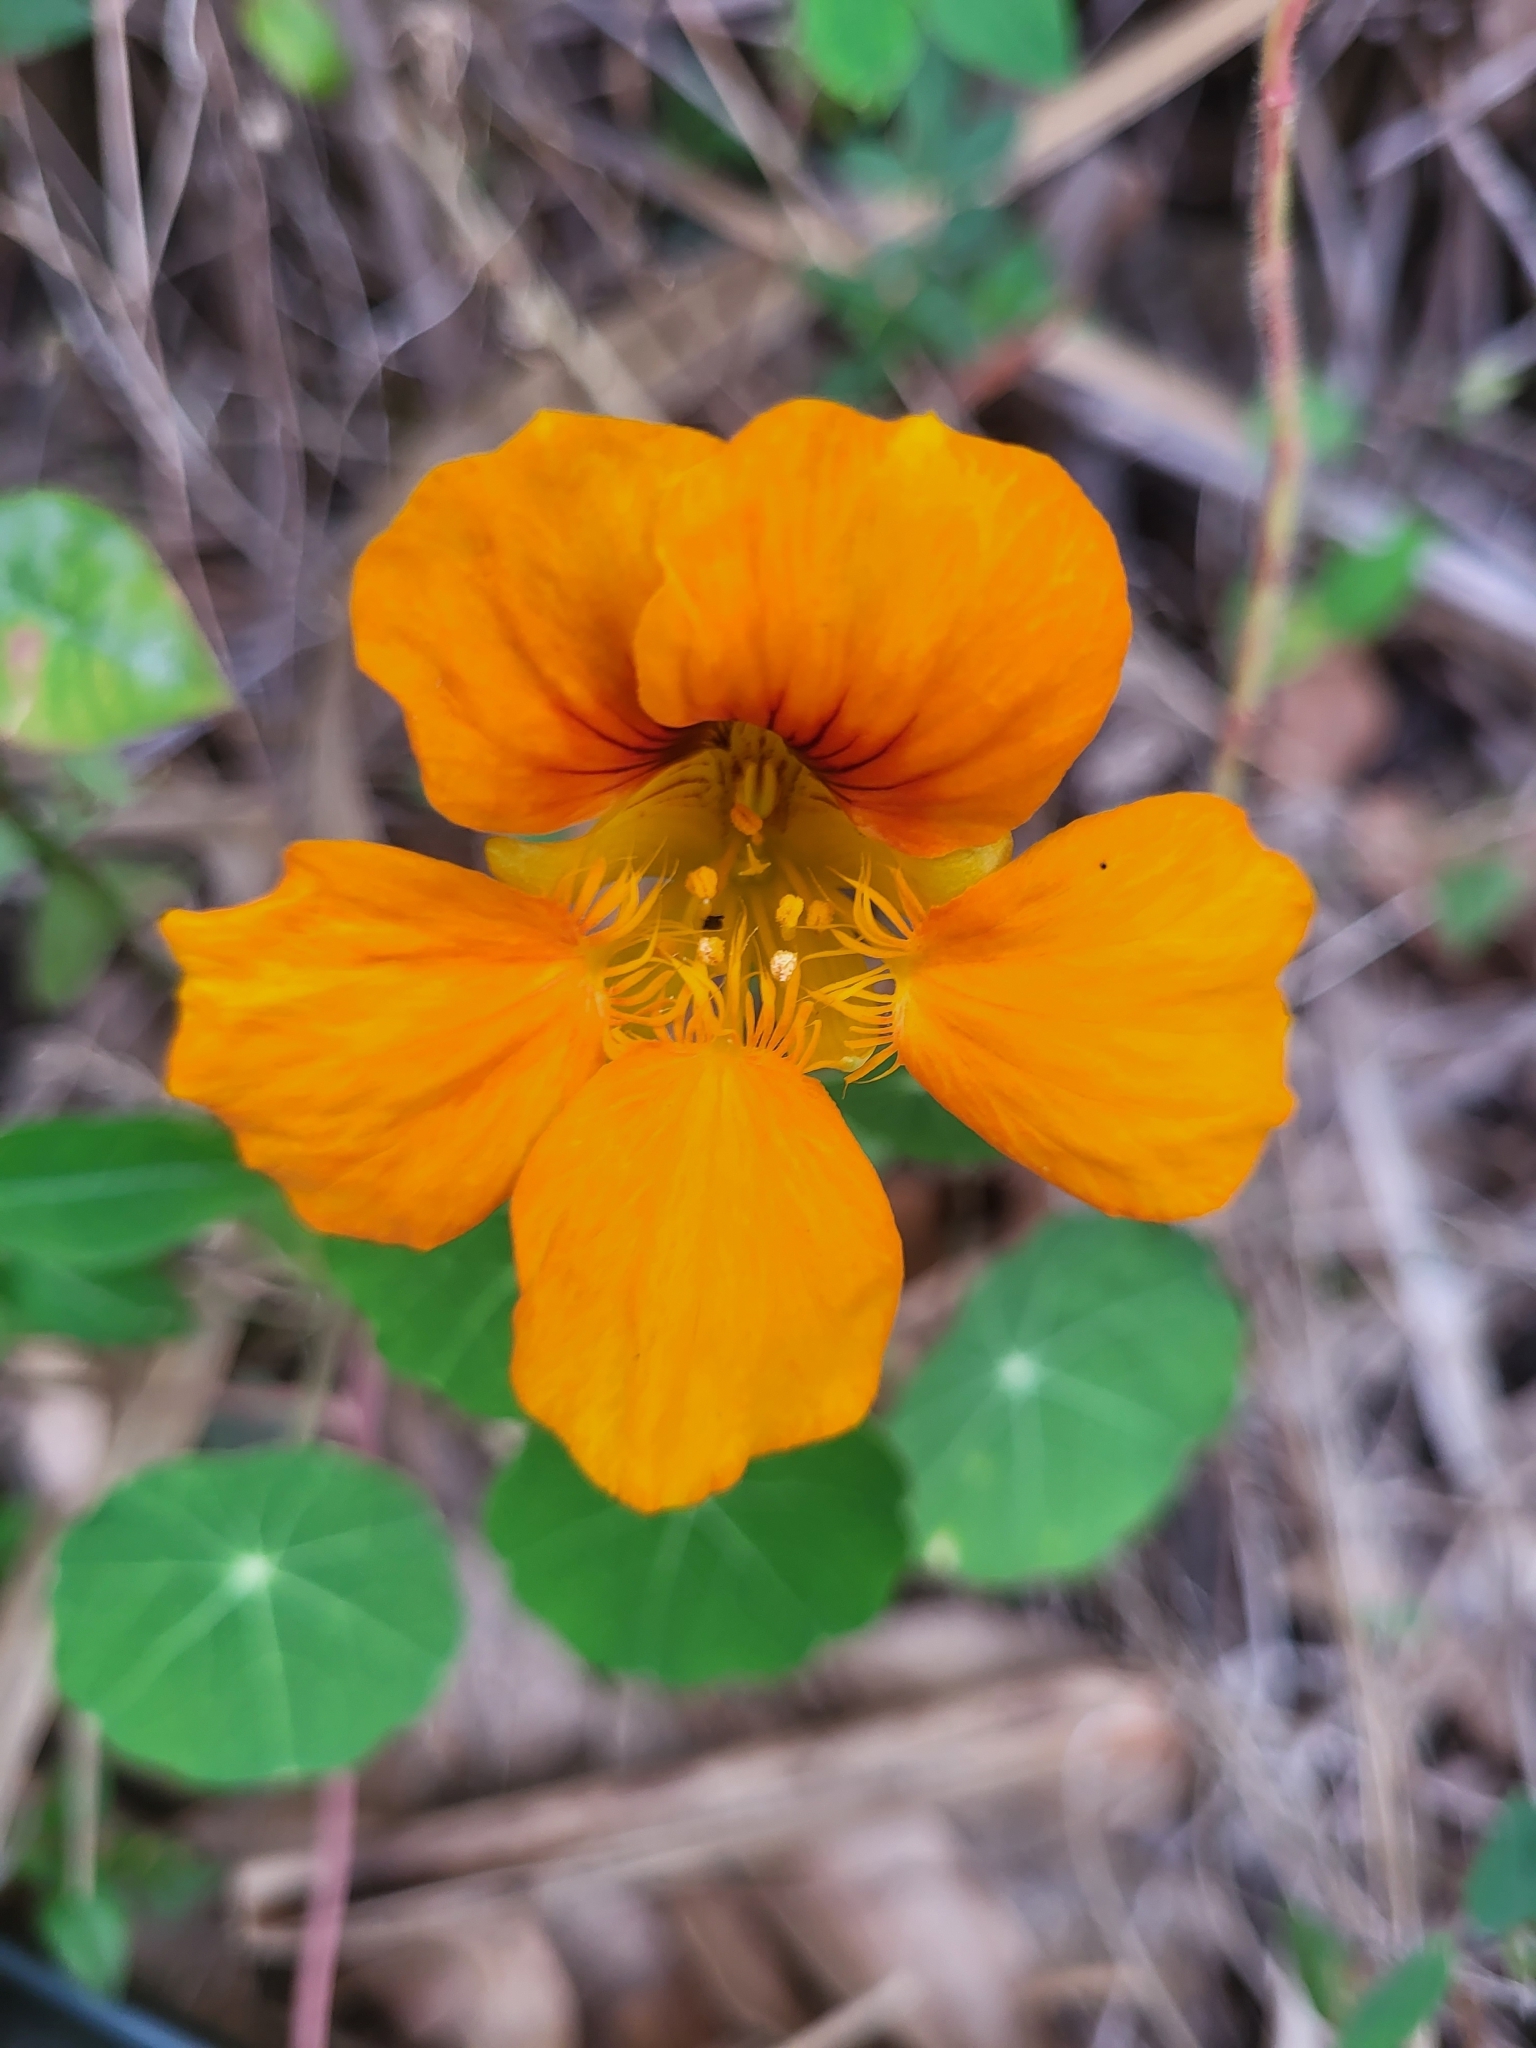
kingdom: Plantae
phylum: Tracheophyta
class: Magnoliopsida
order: Brassicales
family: Tropaeolaceae
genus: Tropaeolum
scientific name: Tropaeolum majus
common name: Nasturtium
